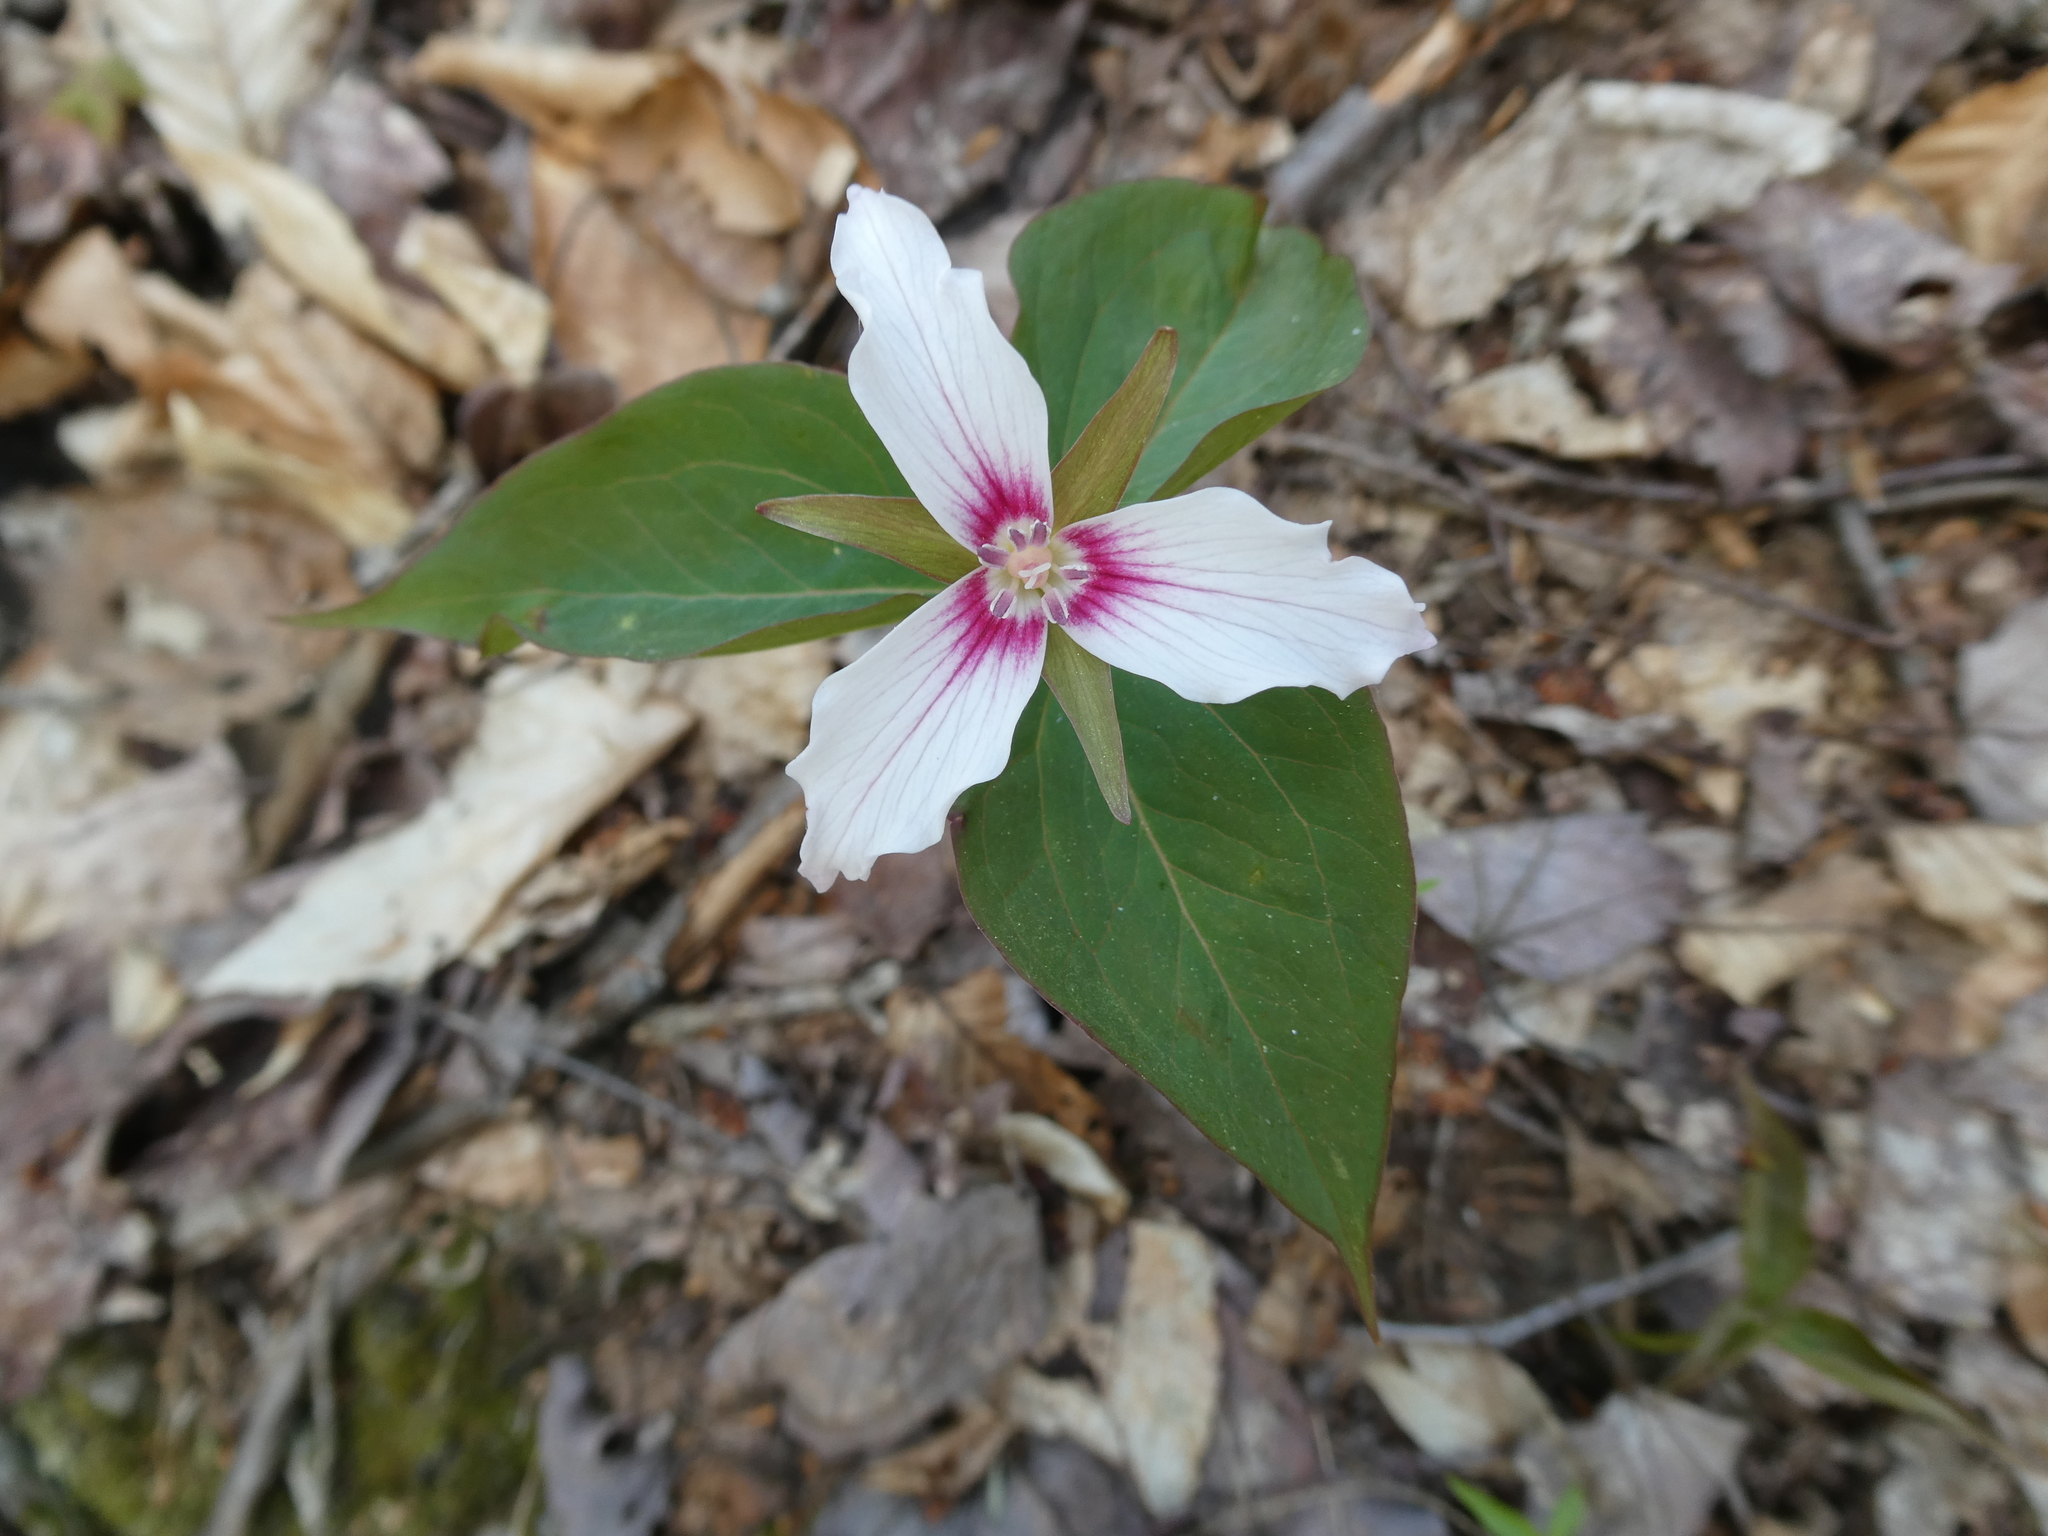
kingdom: Plantae
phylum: Tracheophyta
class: Liliopsida
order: Liliales
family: Melanthiaceae
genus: Trillium
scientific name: Trillium undulatum
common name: Paint trillium
